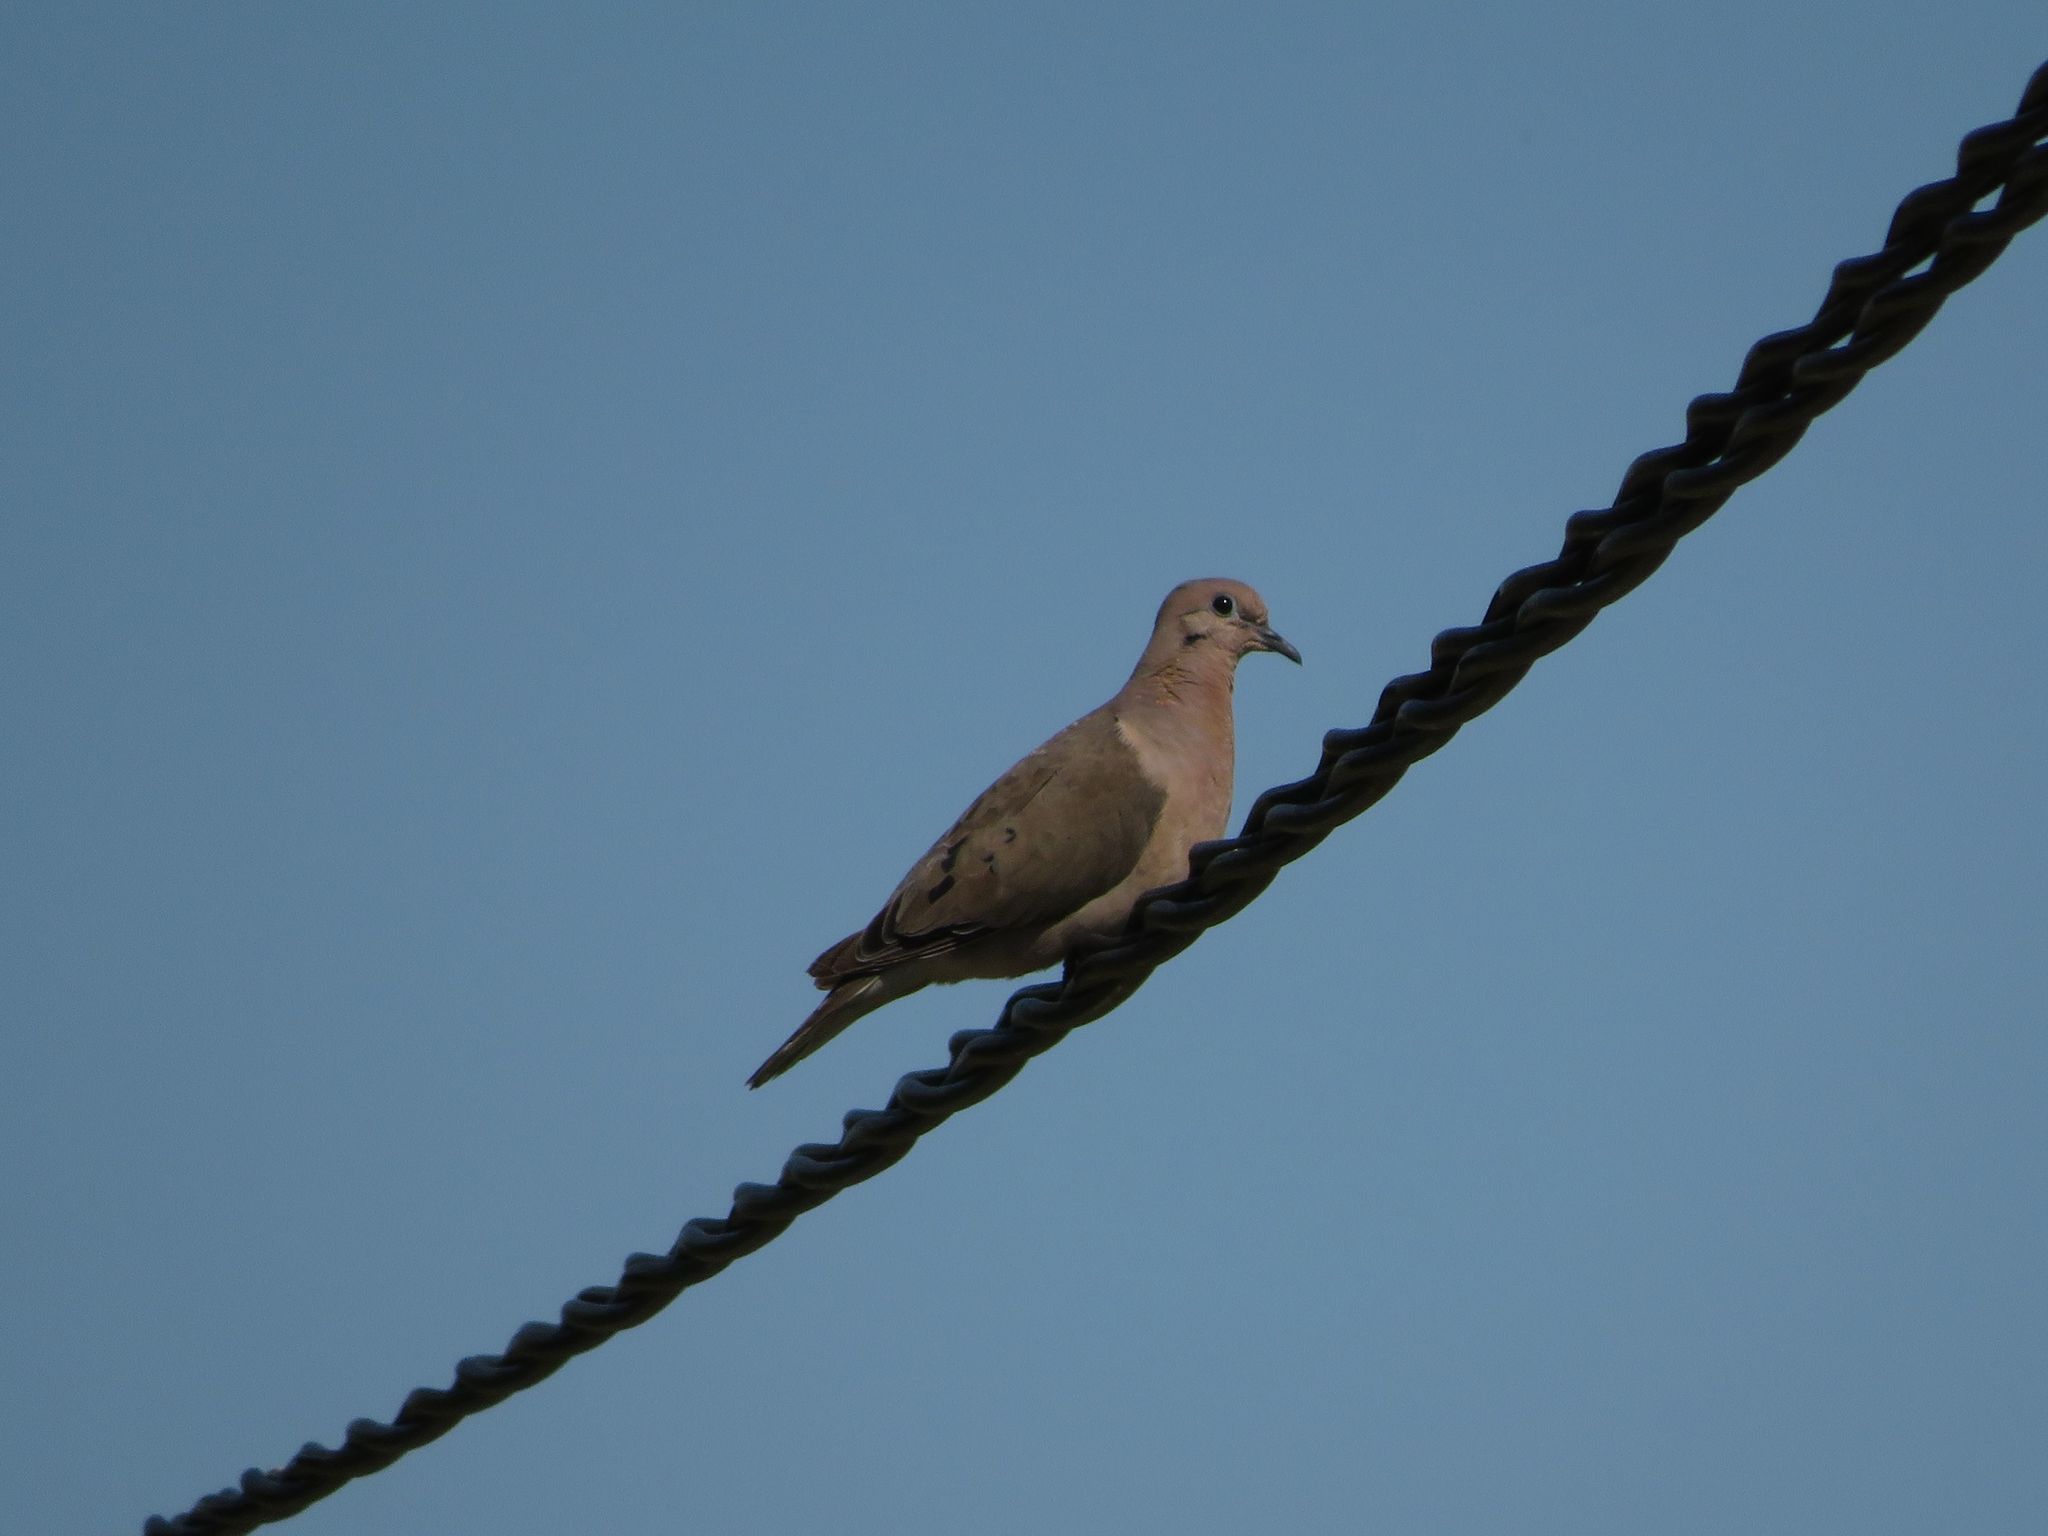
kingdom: Animalia
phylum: Chordata
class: Aves
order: Columbiformes
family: Columbidae
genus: Zenaida
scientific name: Zenaida auriculata
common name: Eared dove
